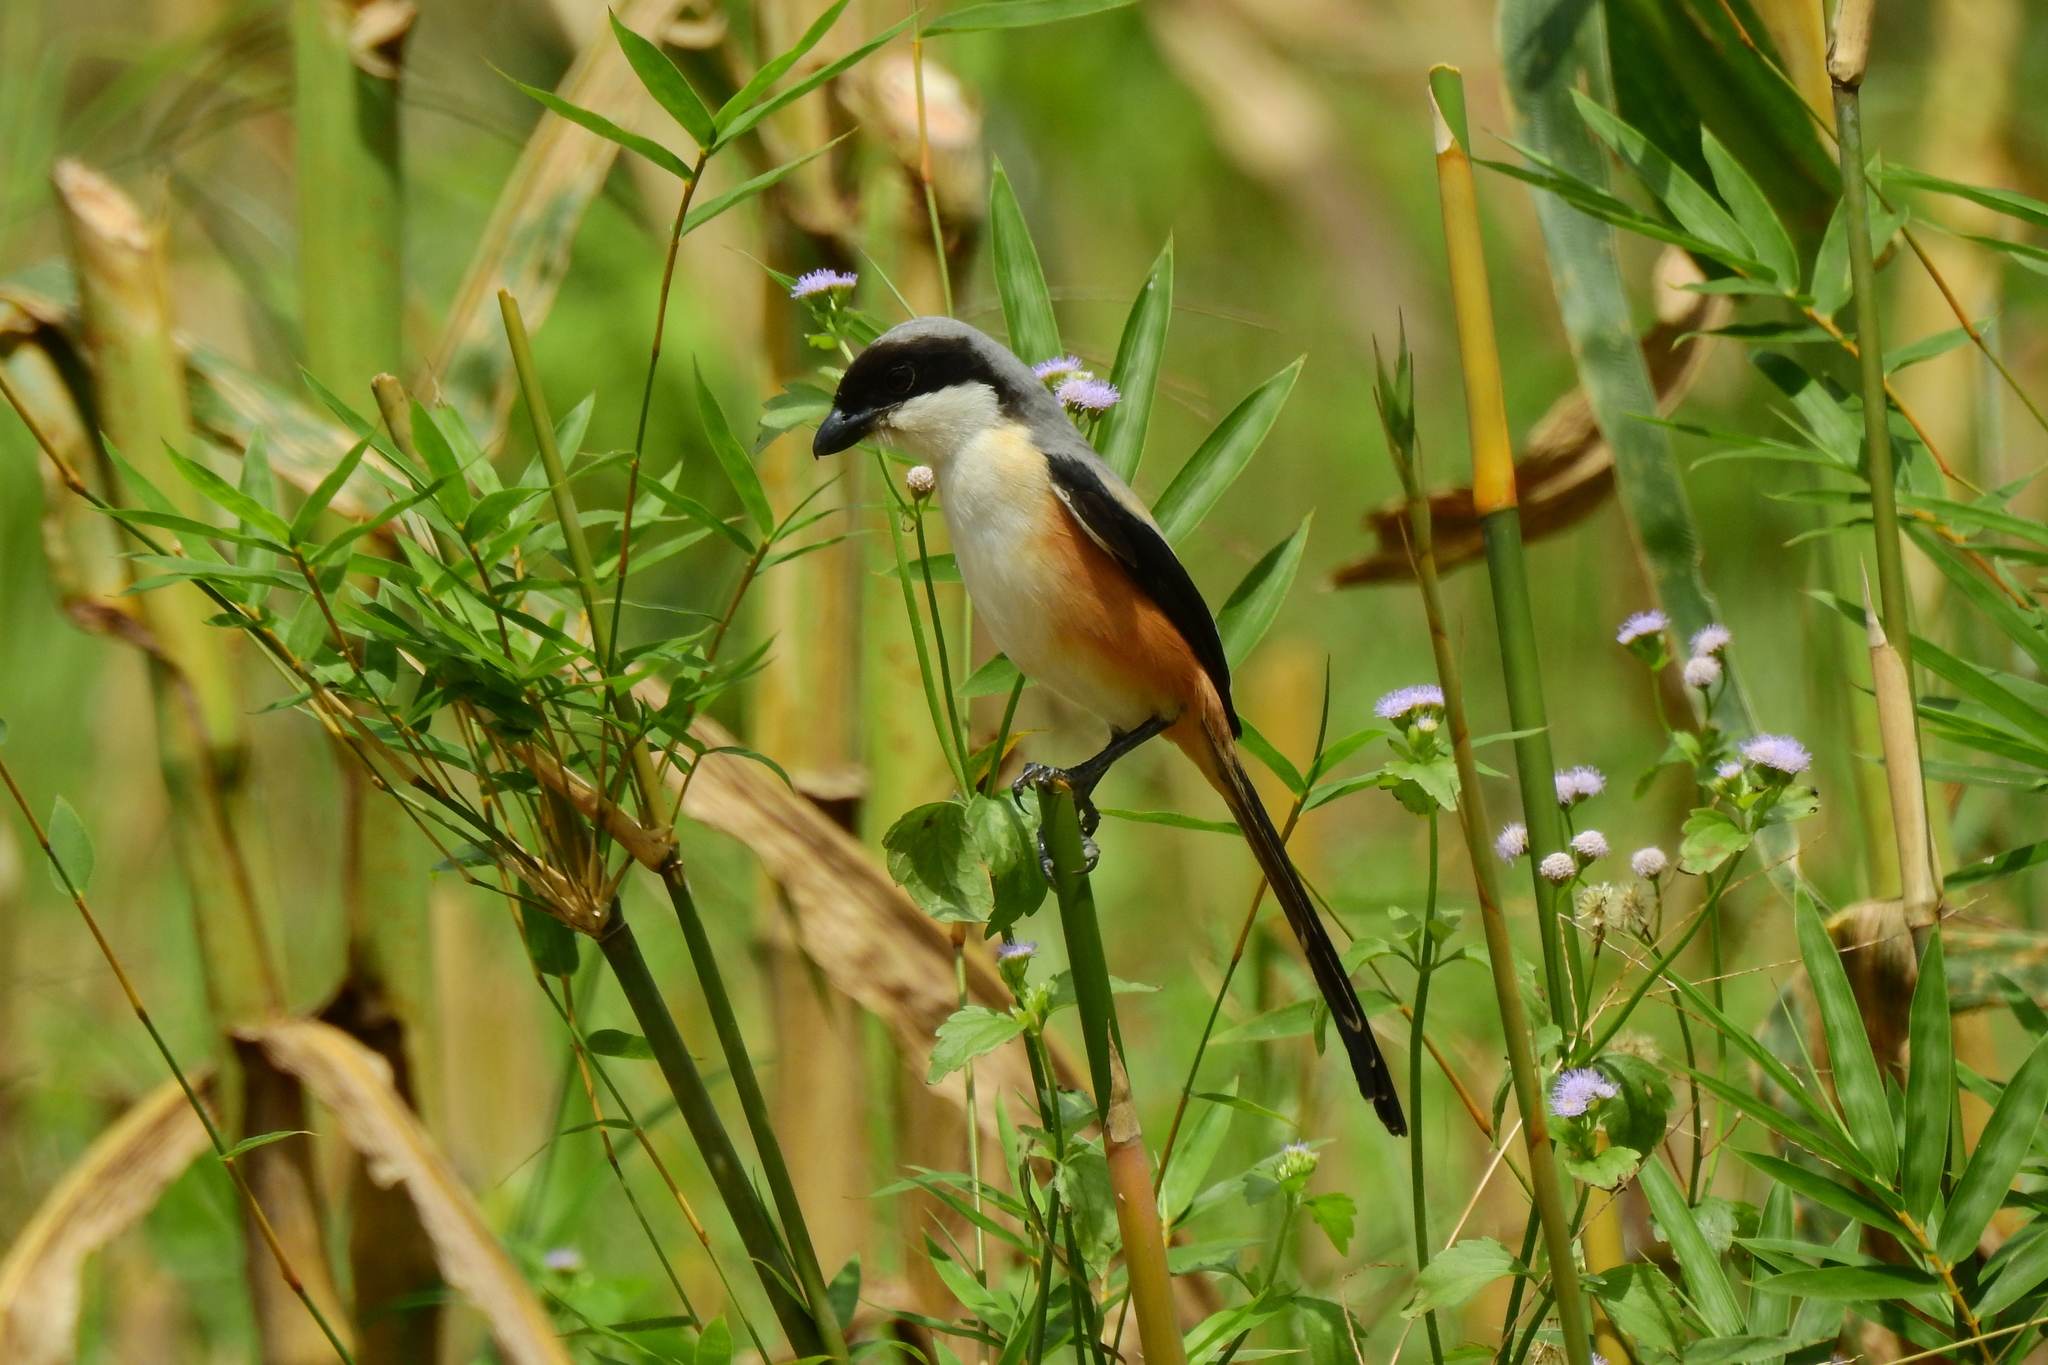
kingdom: Animalia
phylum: Chordata
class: Aves
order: Passeriformes
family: Laniidae
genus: Lanius
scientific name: Lanius schach
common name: Long-tailed shrike
